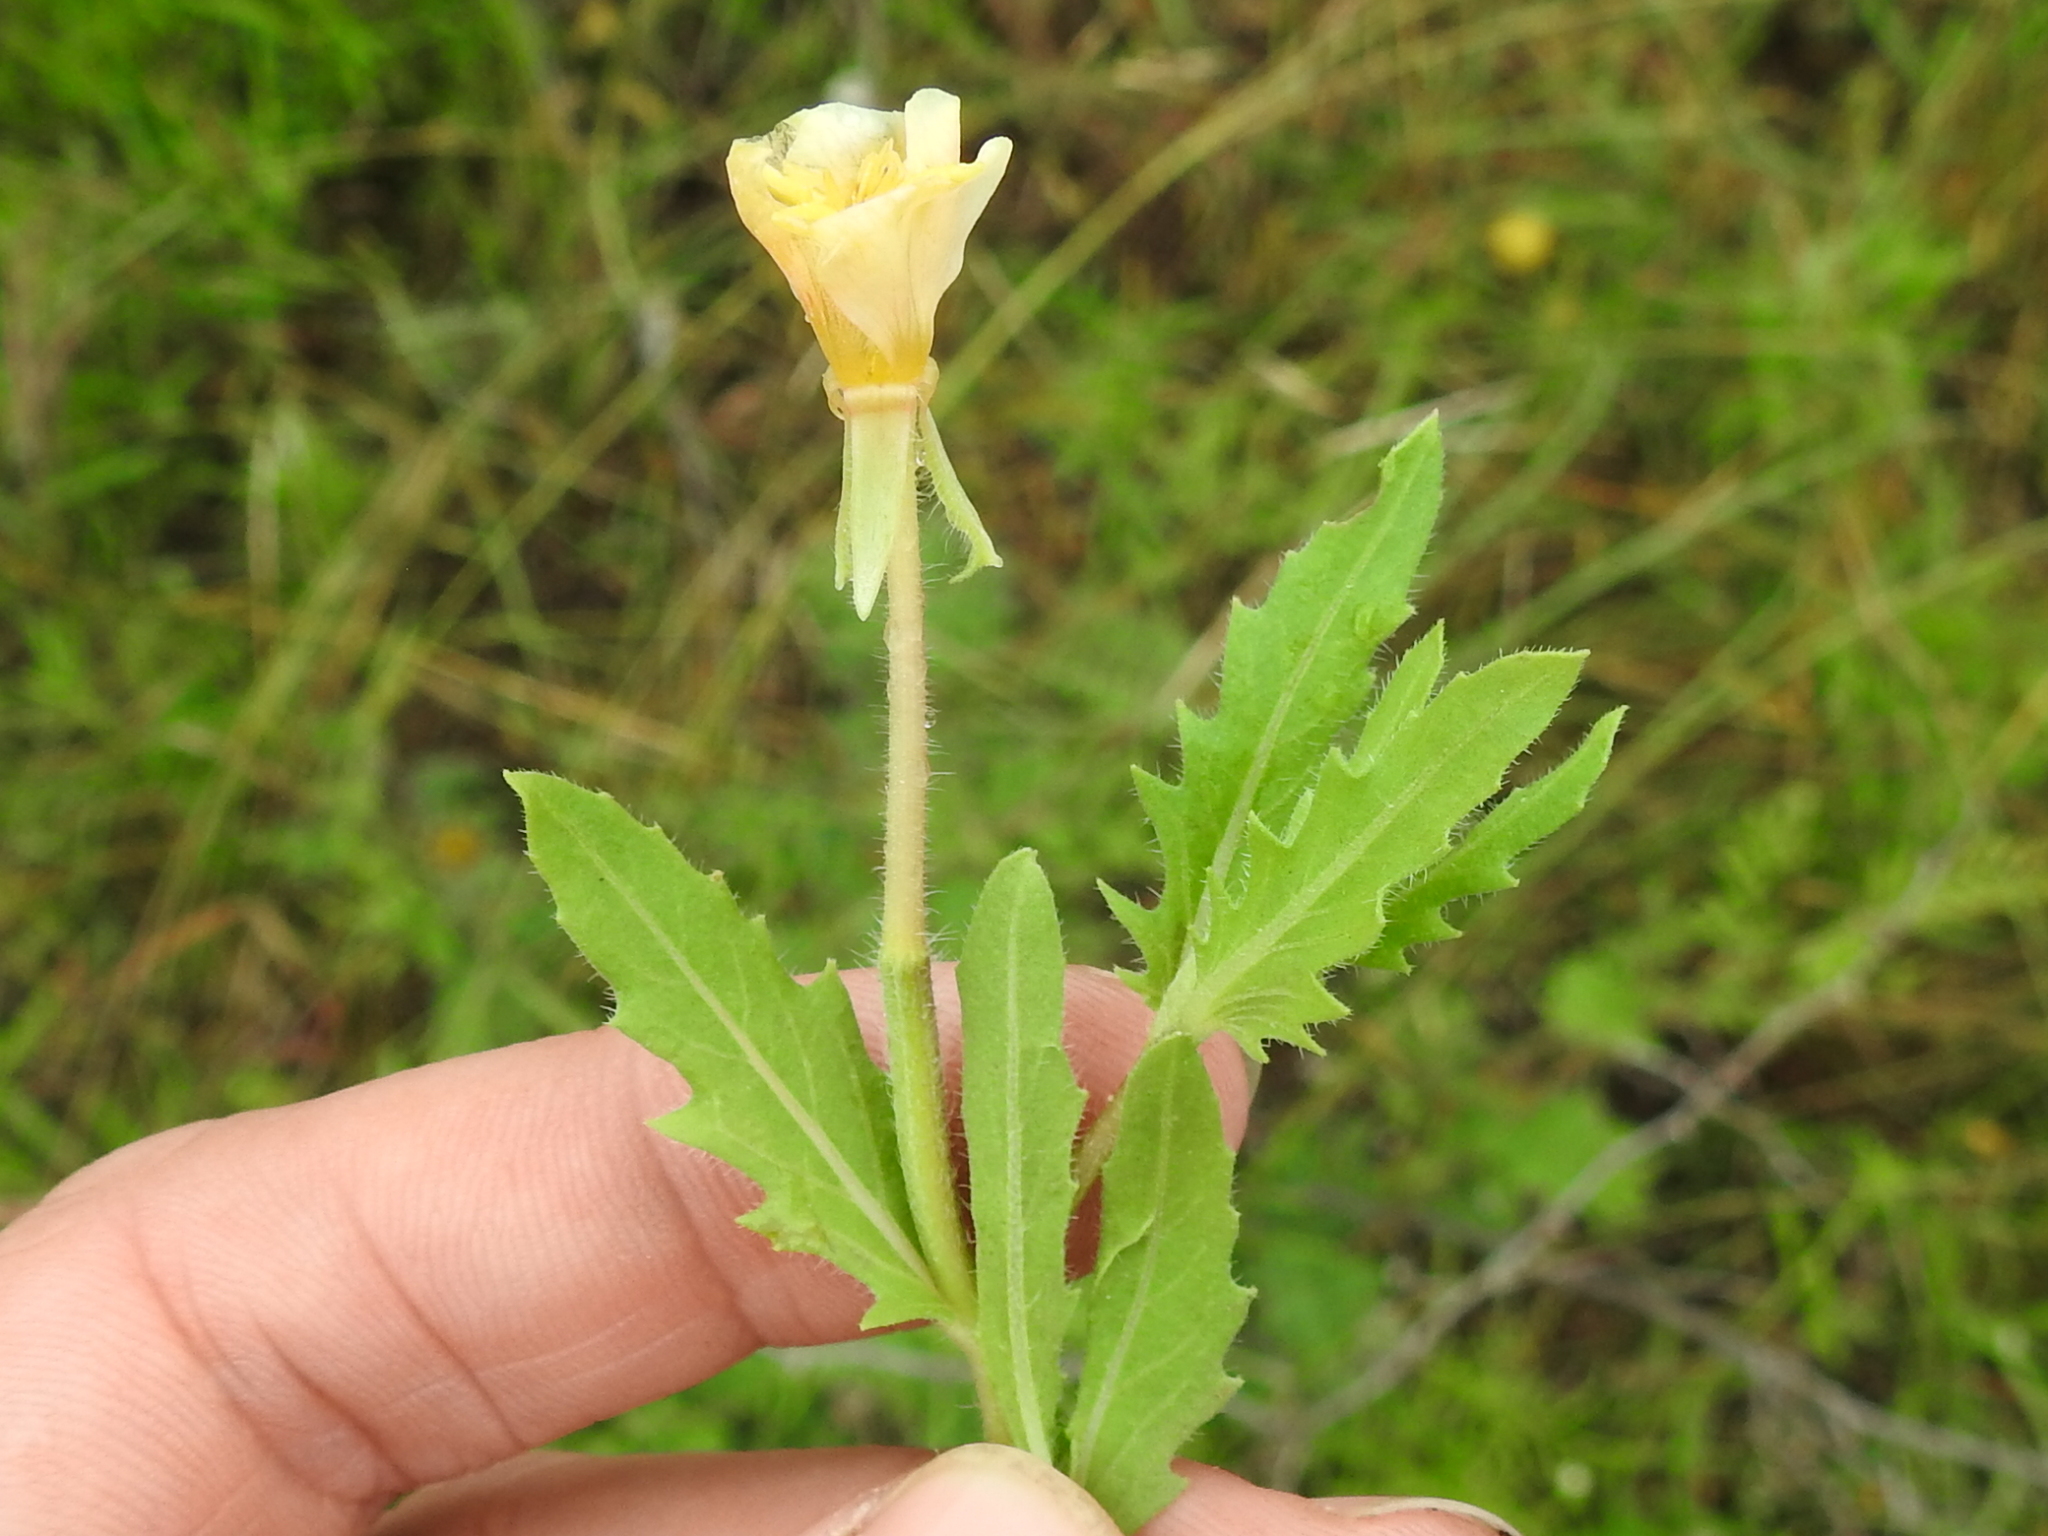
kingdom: Plantae
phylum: Tracheophyta
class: Magnoliopsida
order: Myrtales
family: Onagraceae
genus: Oenothera
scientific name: Oenothera laciniata
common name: Cut-leaved evening-primrose
